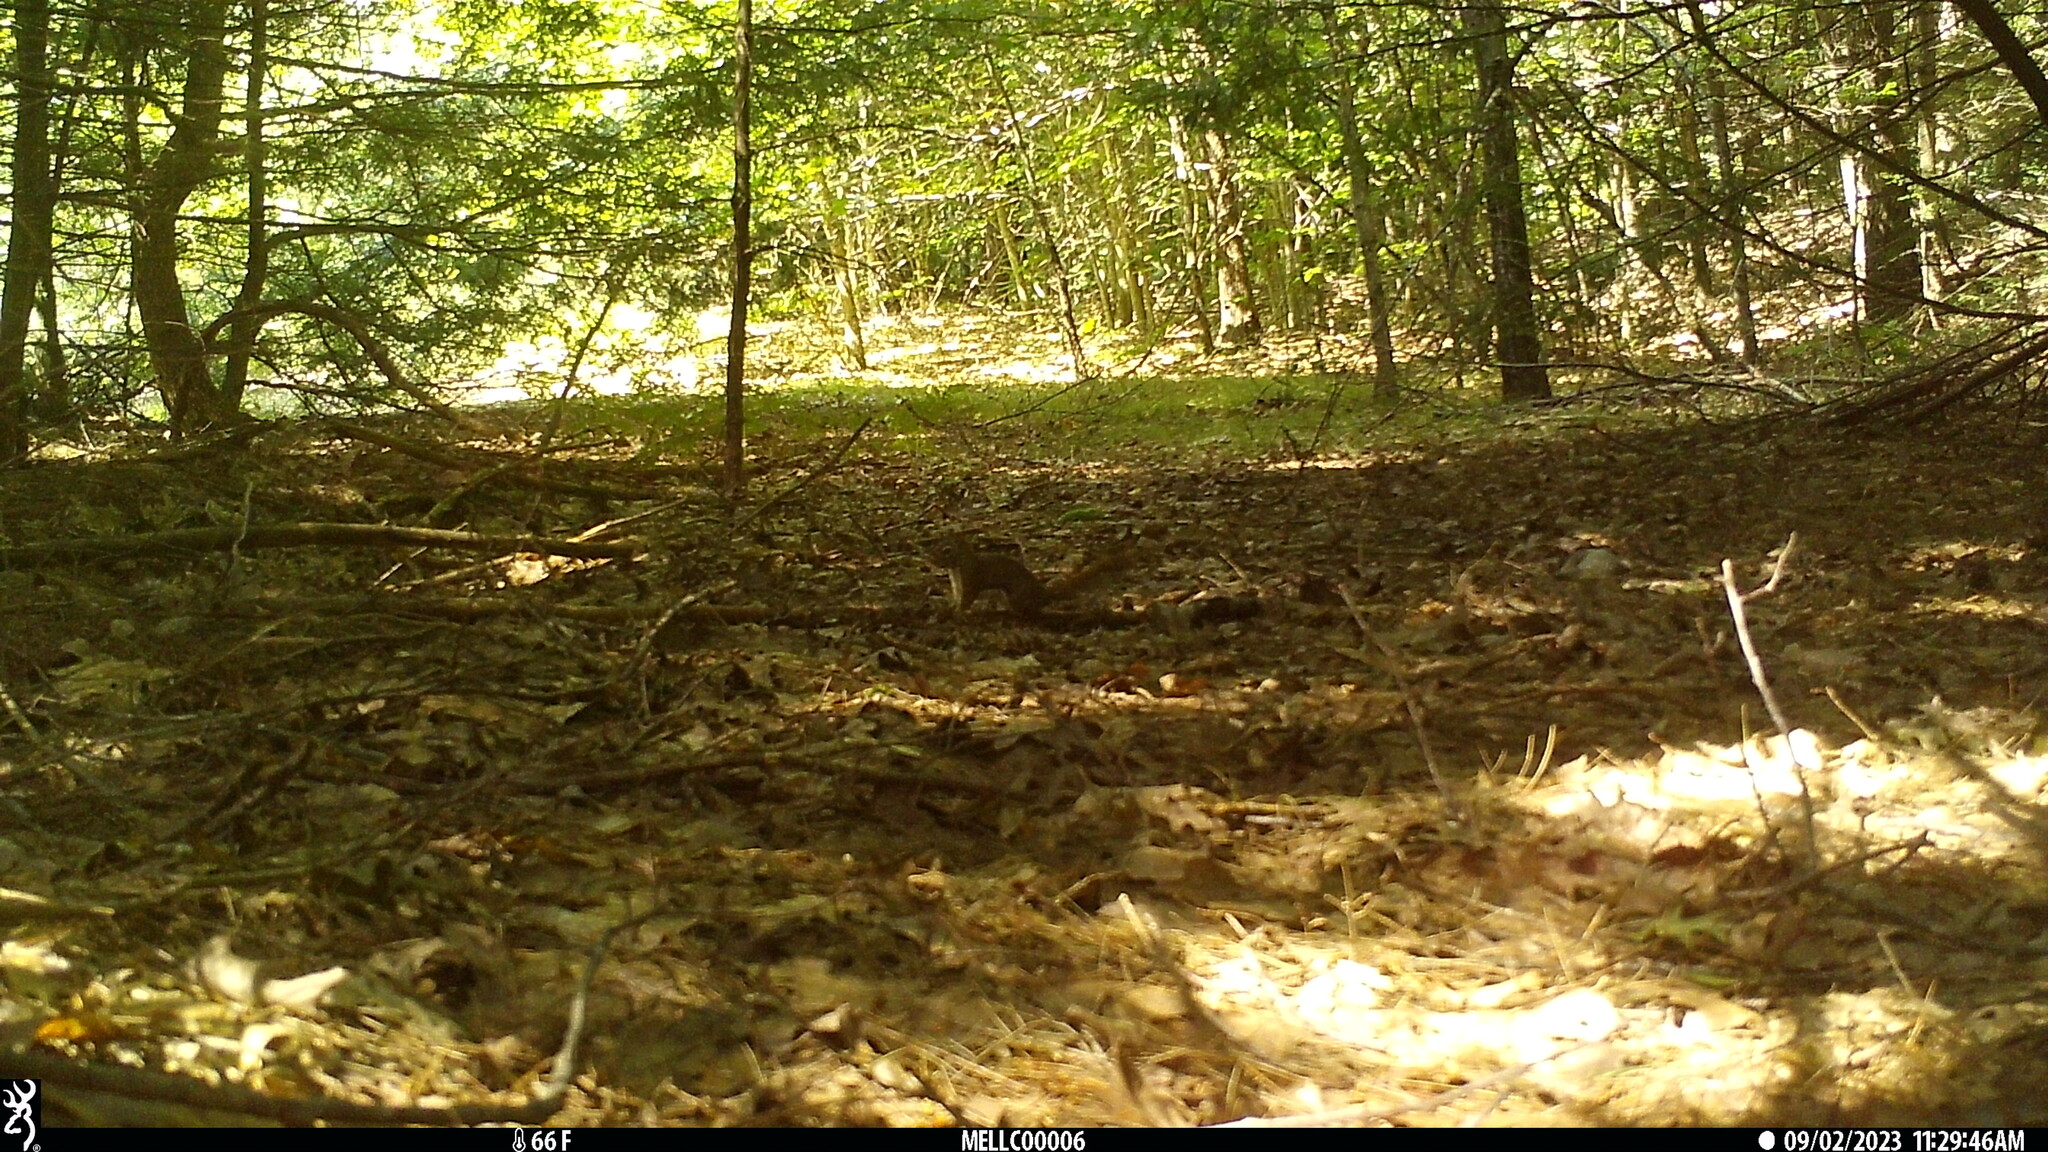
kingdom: Animalia
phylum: Chordata
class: Mammalia
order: Rodentia
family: Sciuridae
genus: Tamiasciurus
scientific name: Tamiasciurus hudsonicus
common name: Red squirrel
